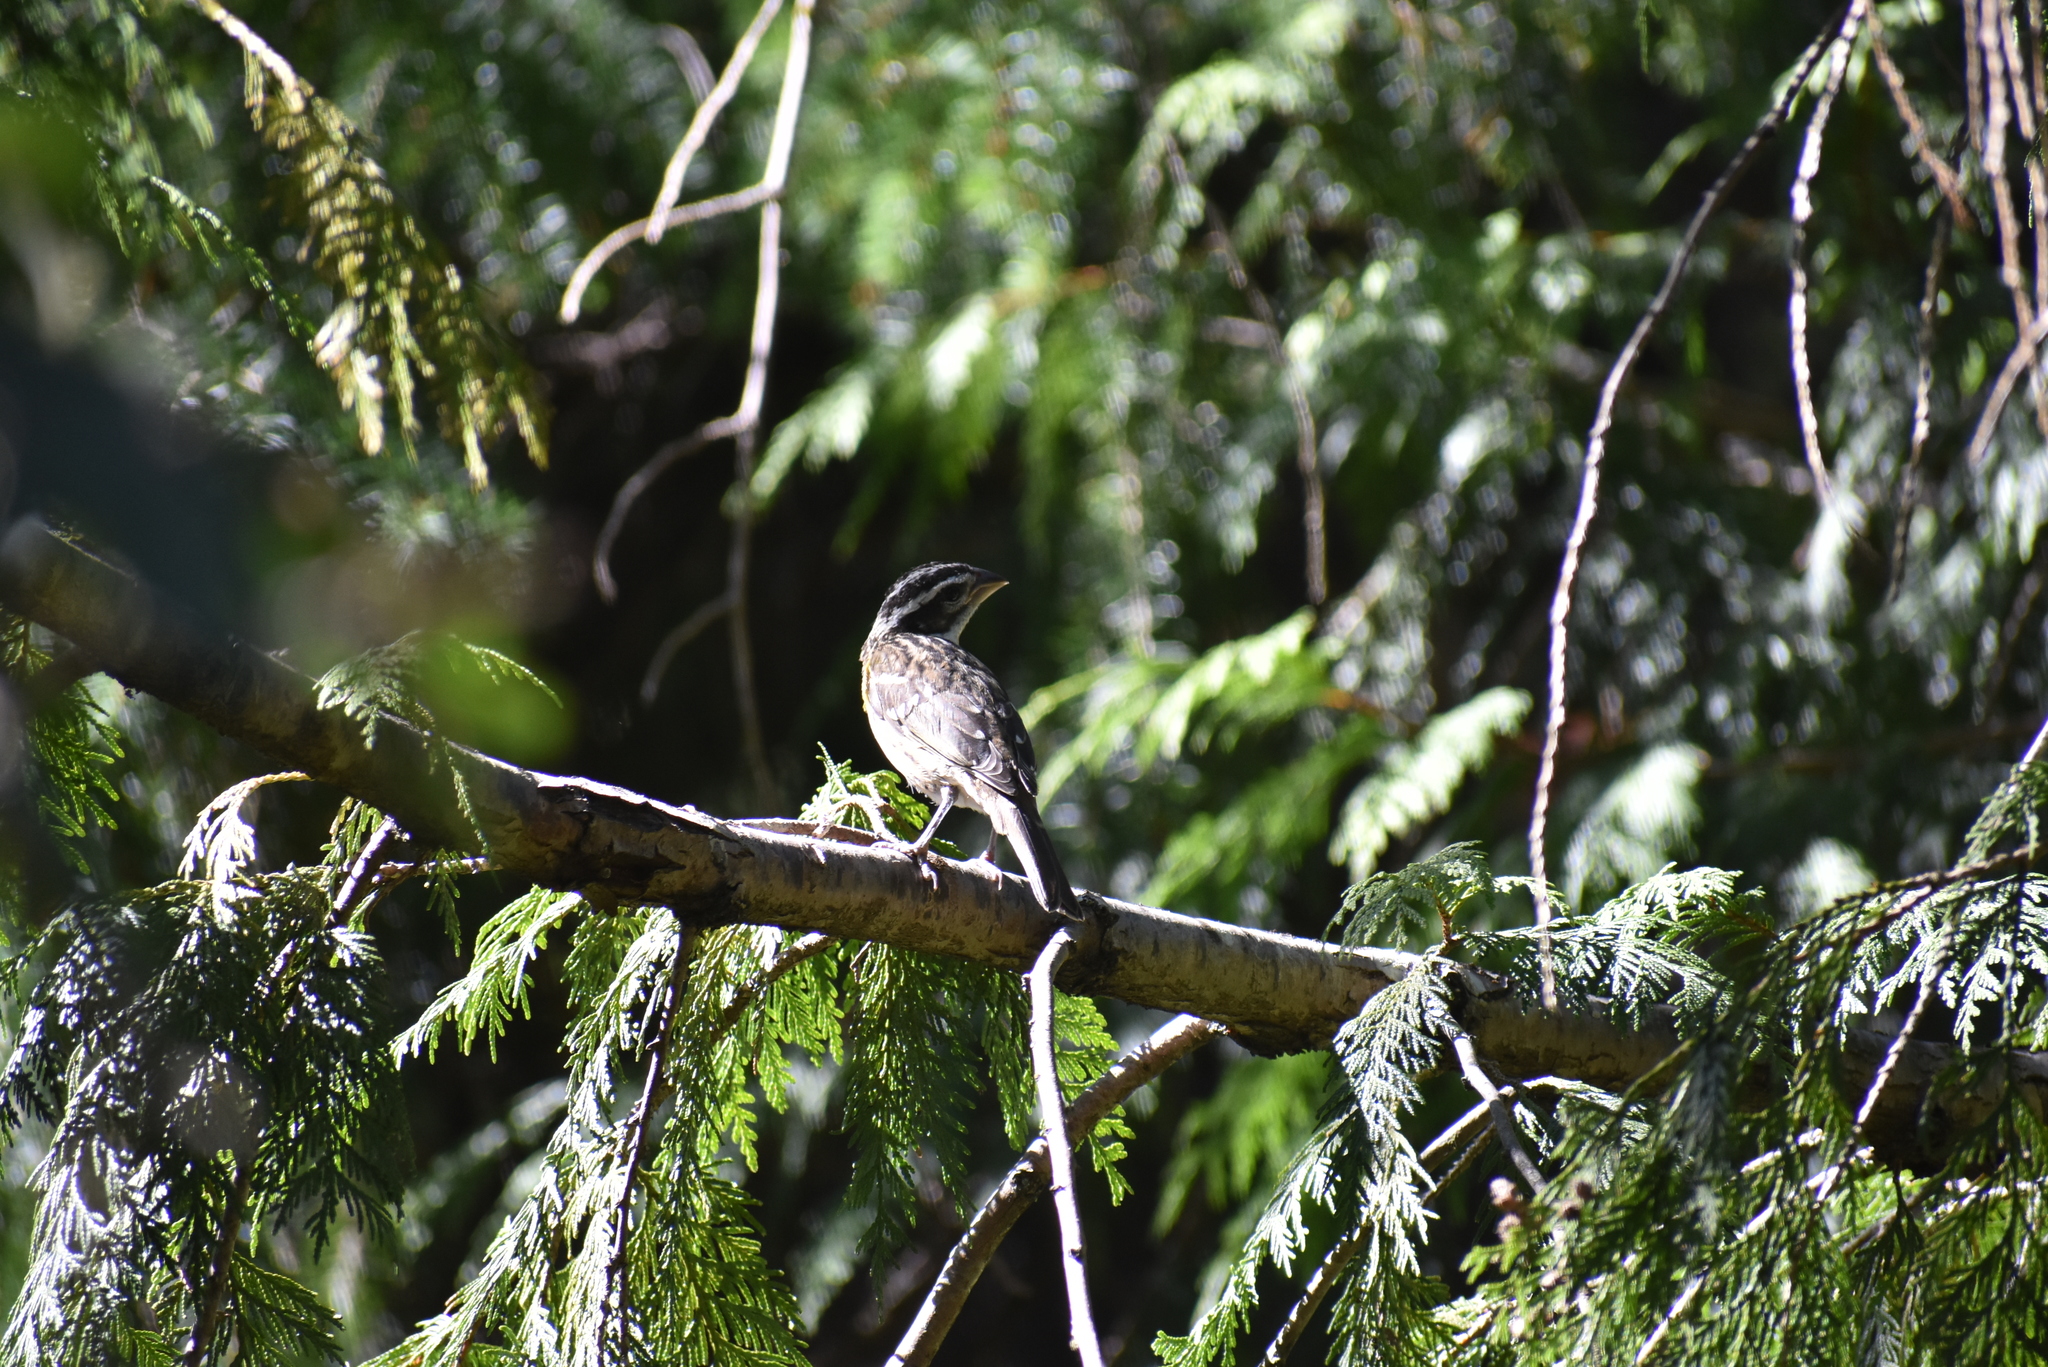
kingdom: Animalia
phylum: Chordata
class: Aves
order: Passeriformes
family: Cardinalidae
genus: Pheucticus
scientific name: Pheucticus melanocephalus
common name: Black-headed grosbeak
